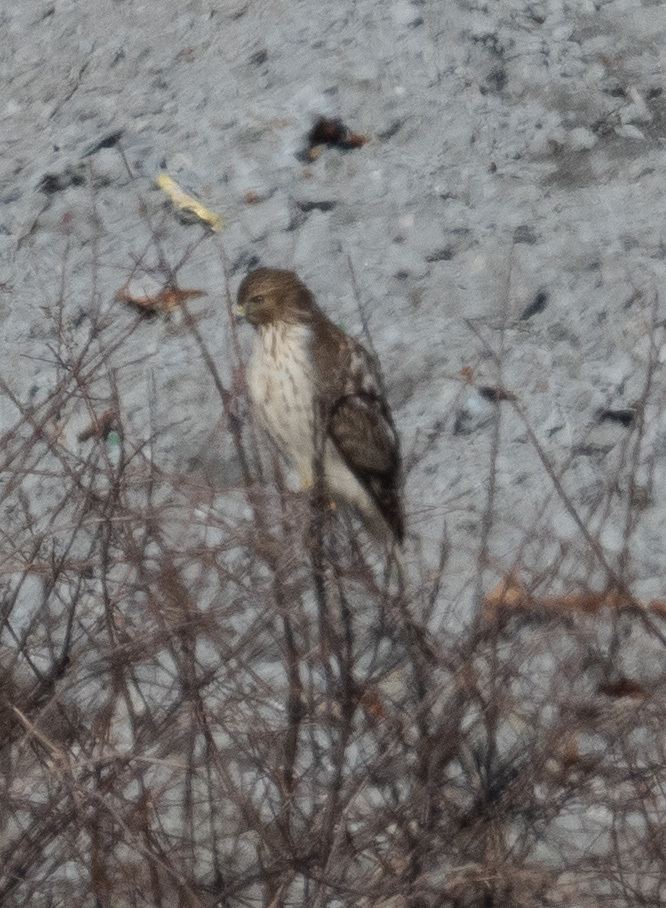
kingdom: Animalia
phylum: Chordata
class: Aves
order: Accipitriformes
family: Accipitridae
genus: Buteo
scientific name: Buteo lineatus
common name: Red-shouldered hawk
